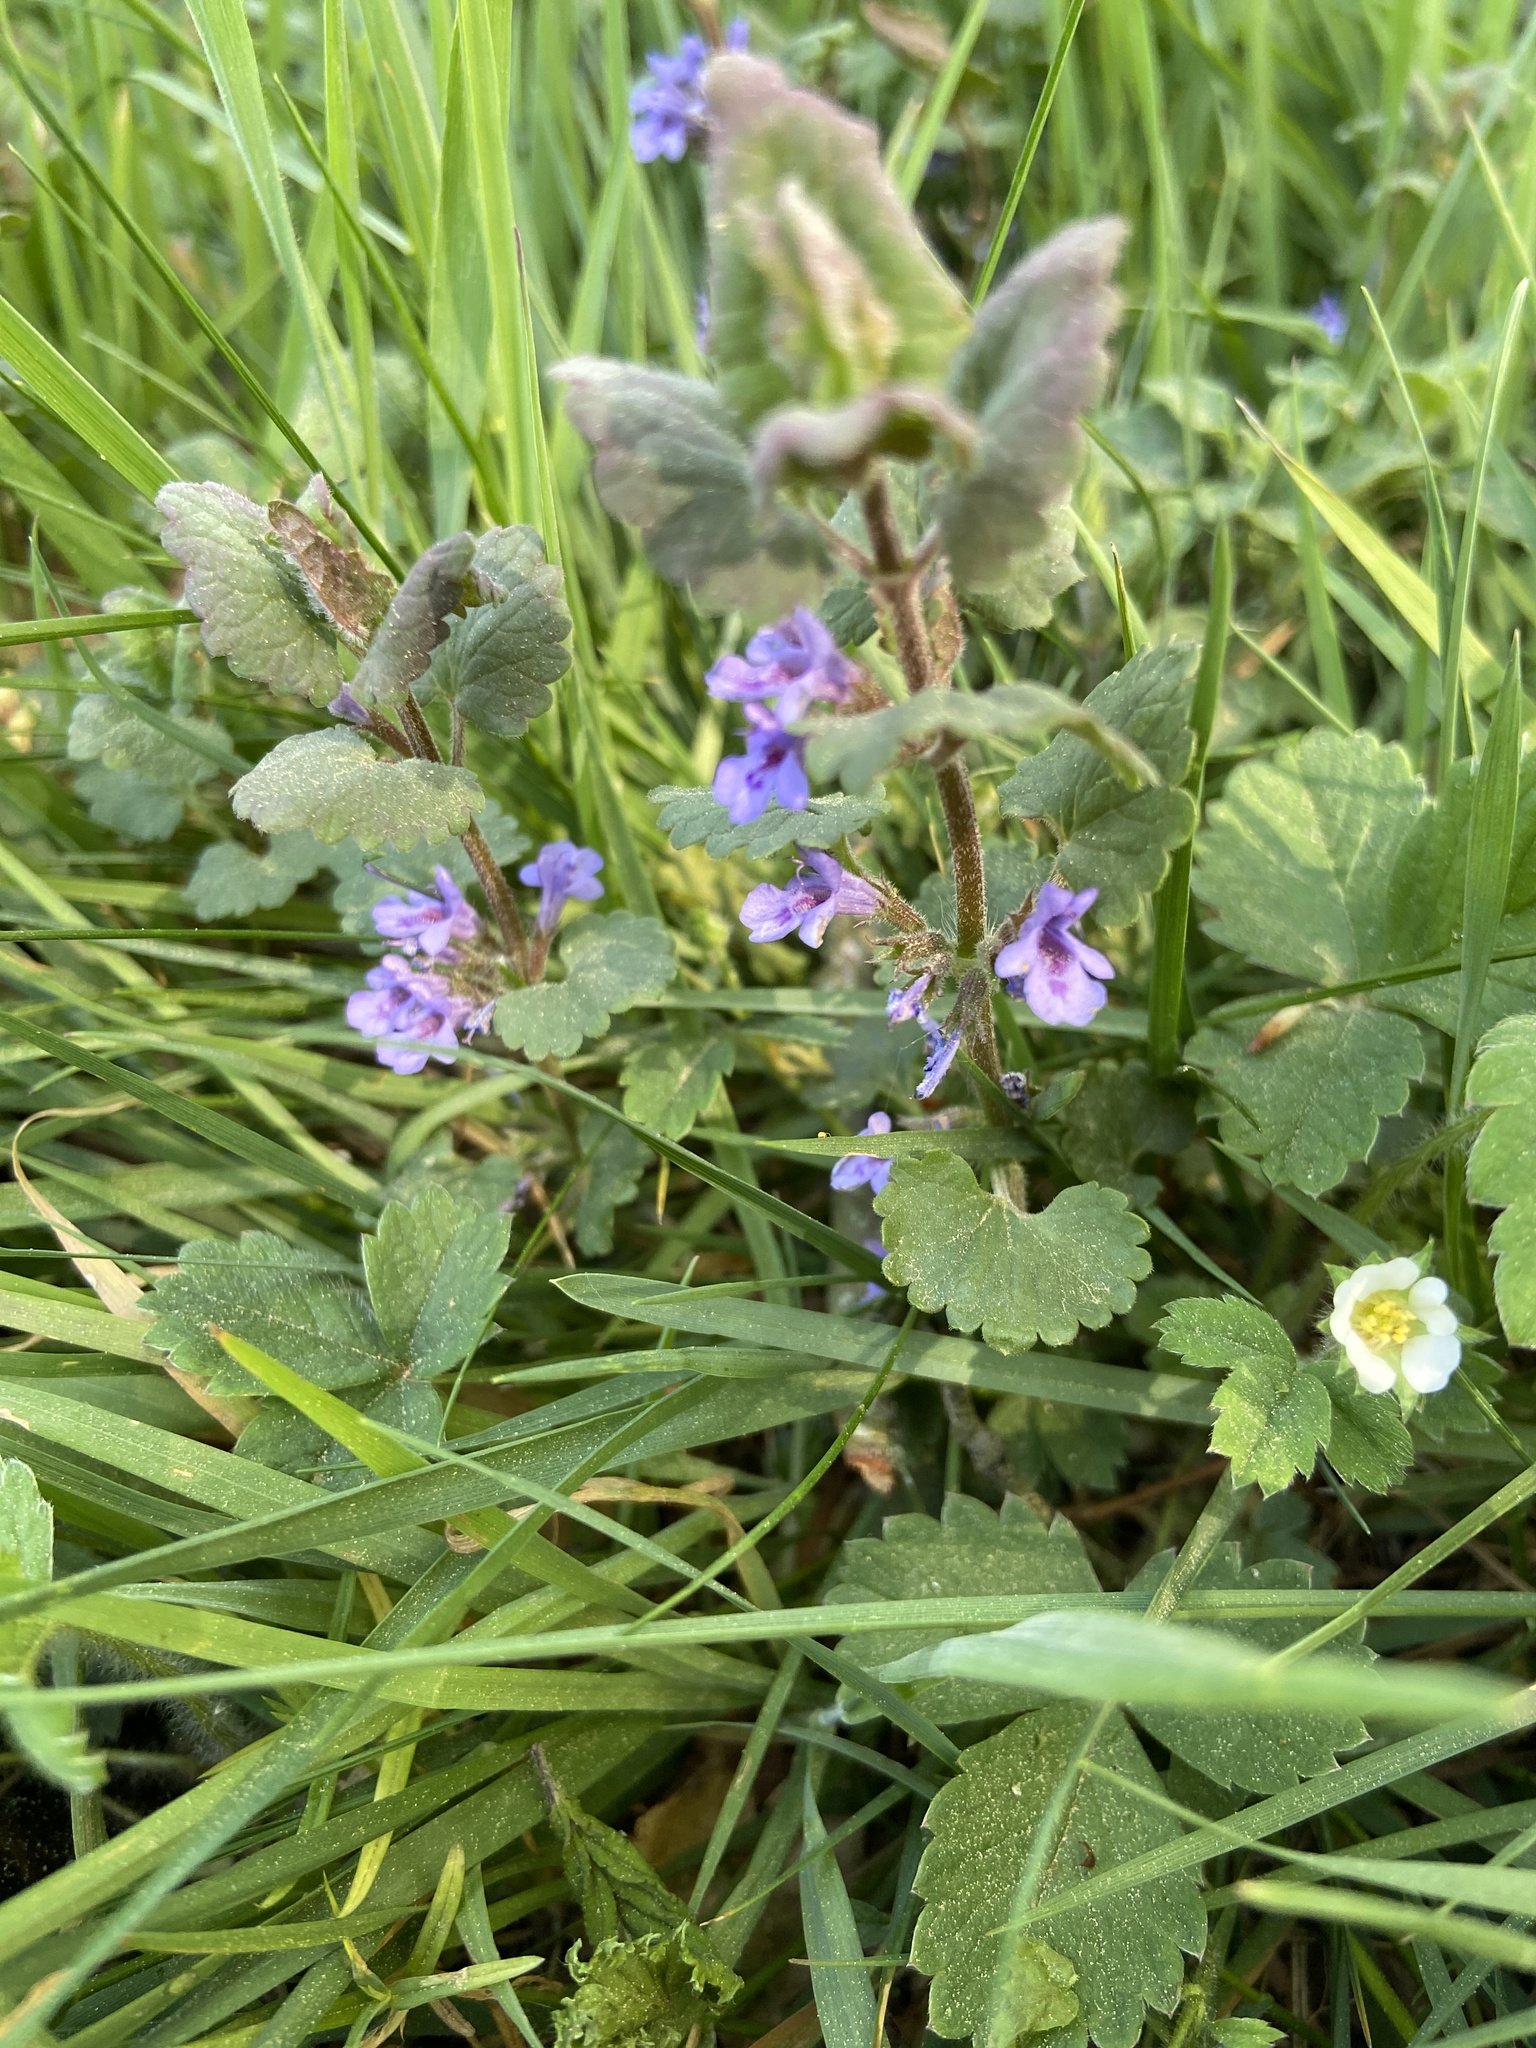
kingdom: Plantae
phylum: Tracheophyta
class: Magnoliopsida
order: Lamiales
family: Lamiaceae
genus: Glechoma
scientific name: Glechoma hederacea
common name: Ground ivy
